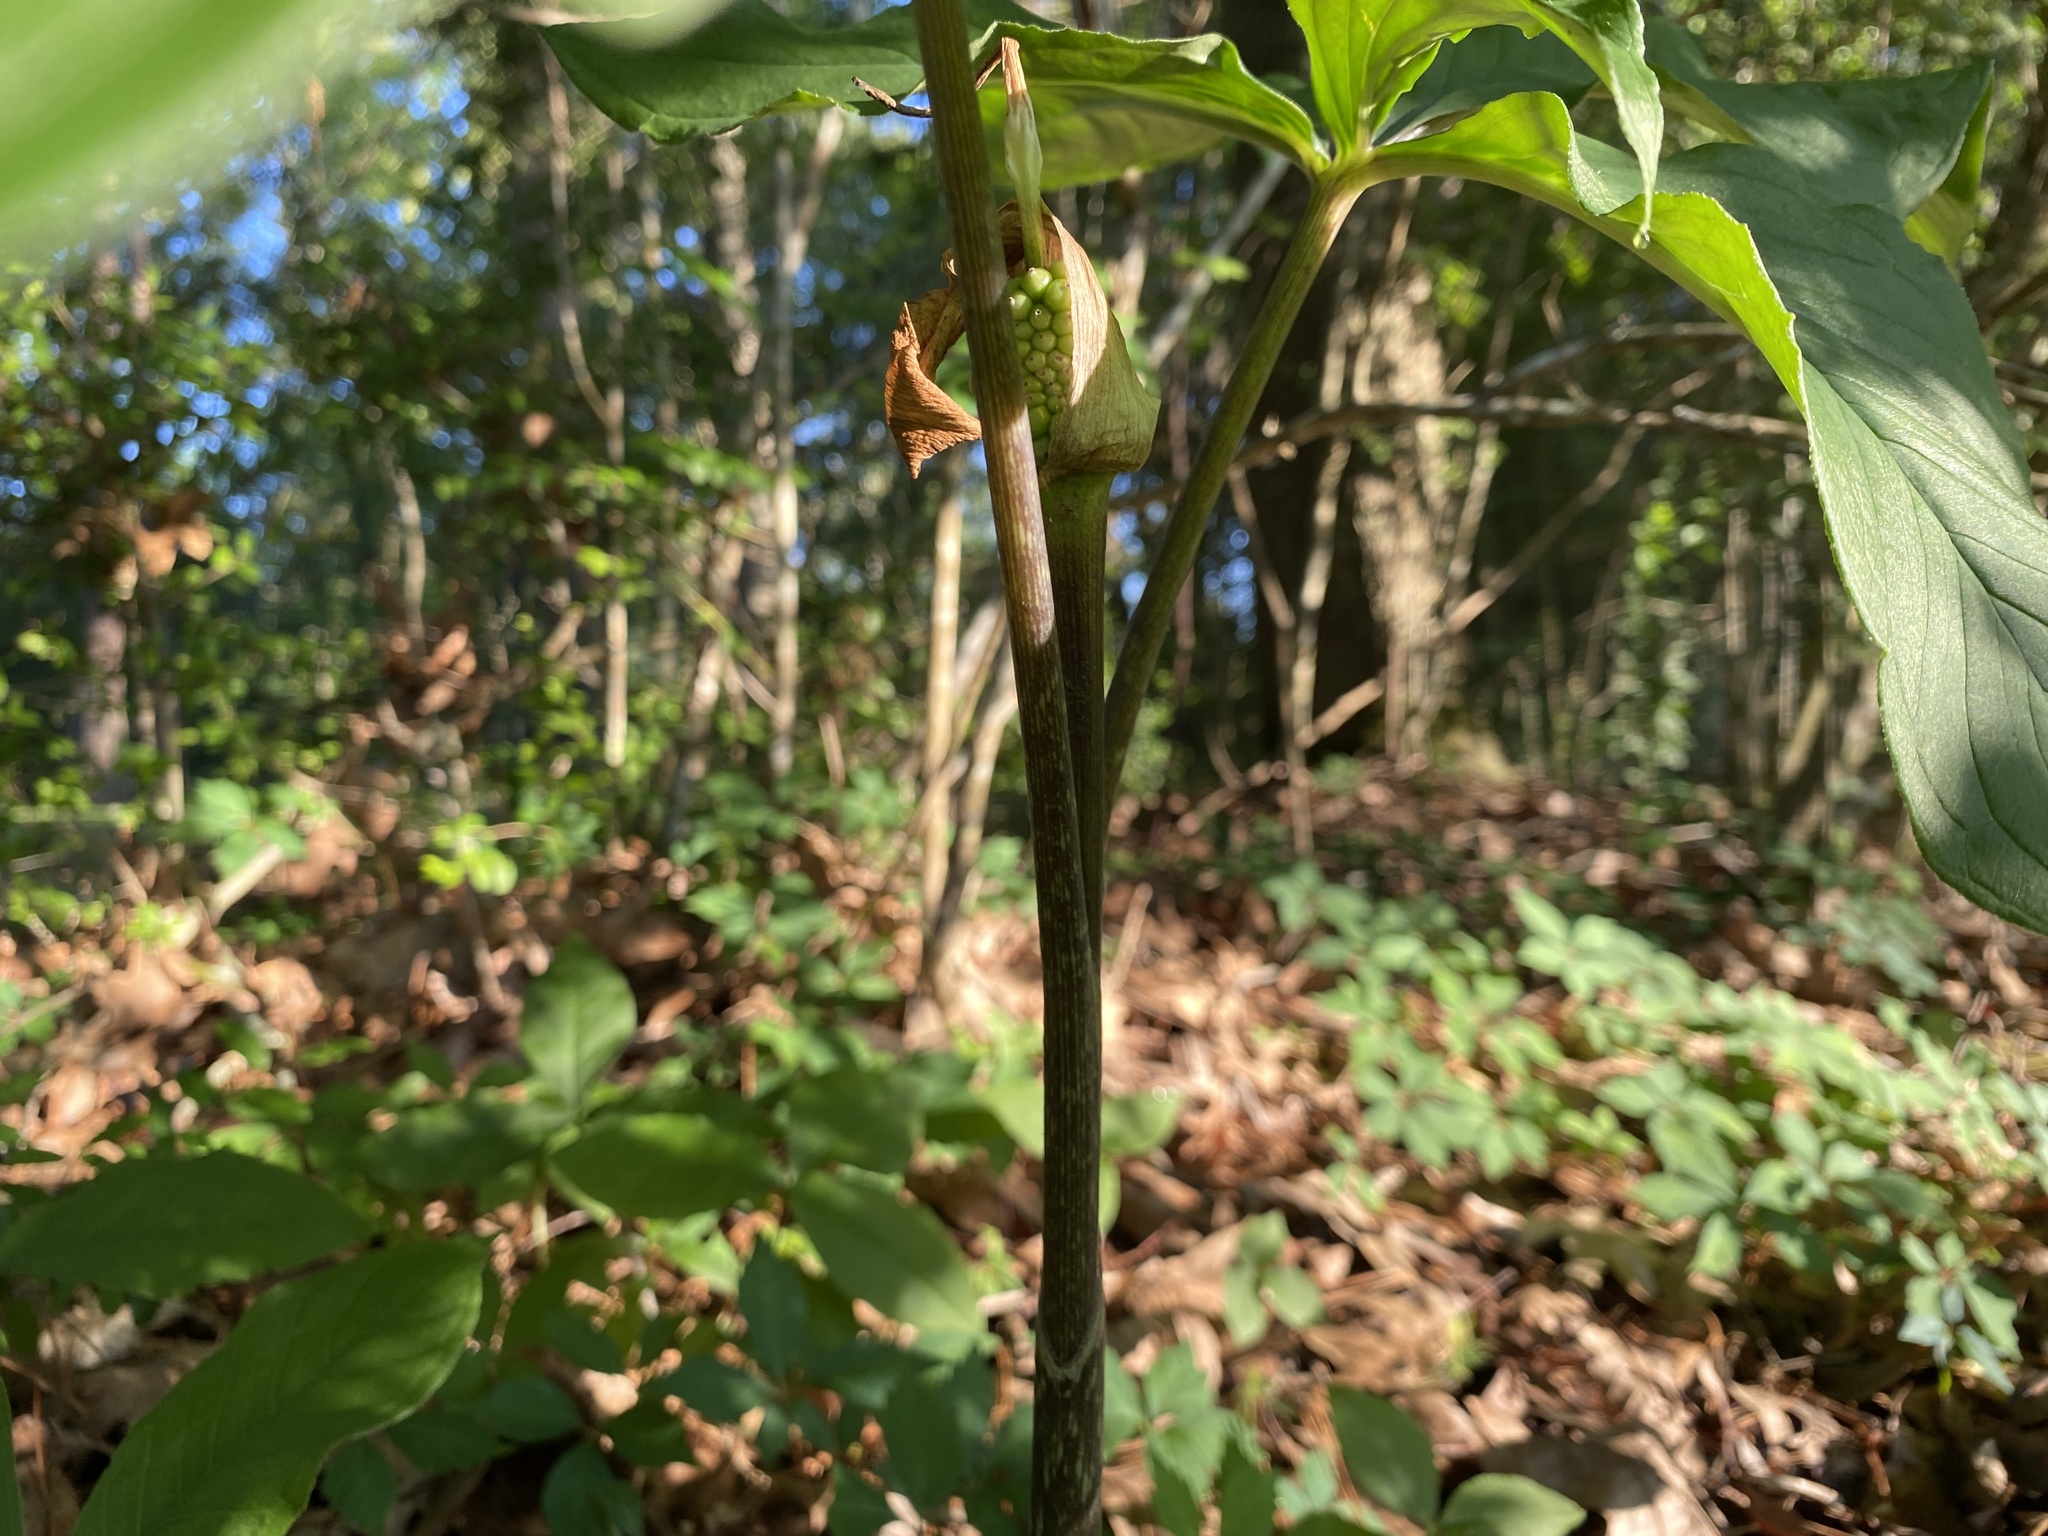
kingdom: Plantae
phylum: Tracheophyta
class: Liliopsida
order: Alismatales
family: Araceae
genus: Arisaema
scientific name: Arisaema quinatum
